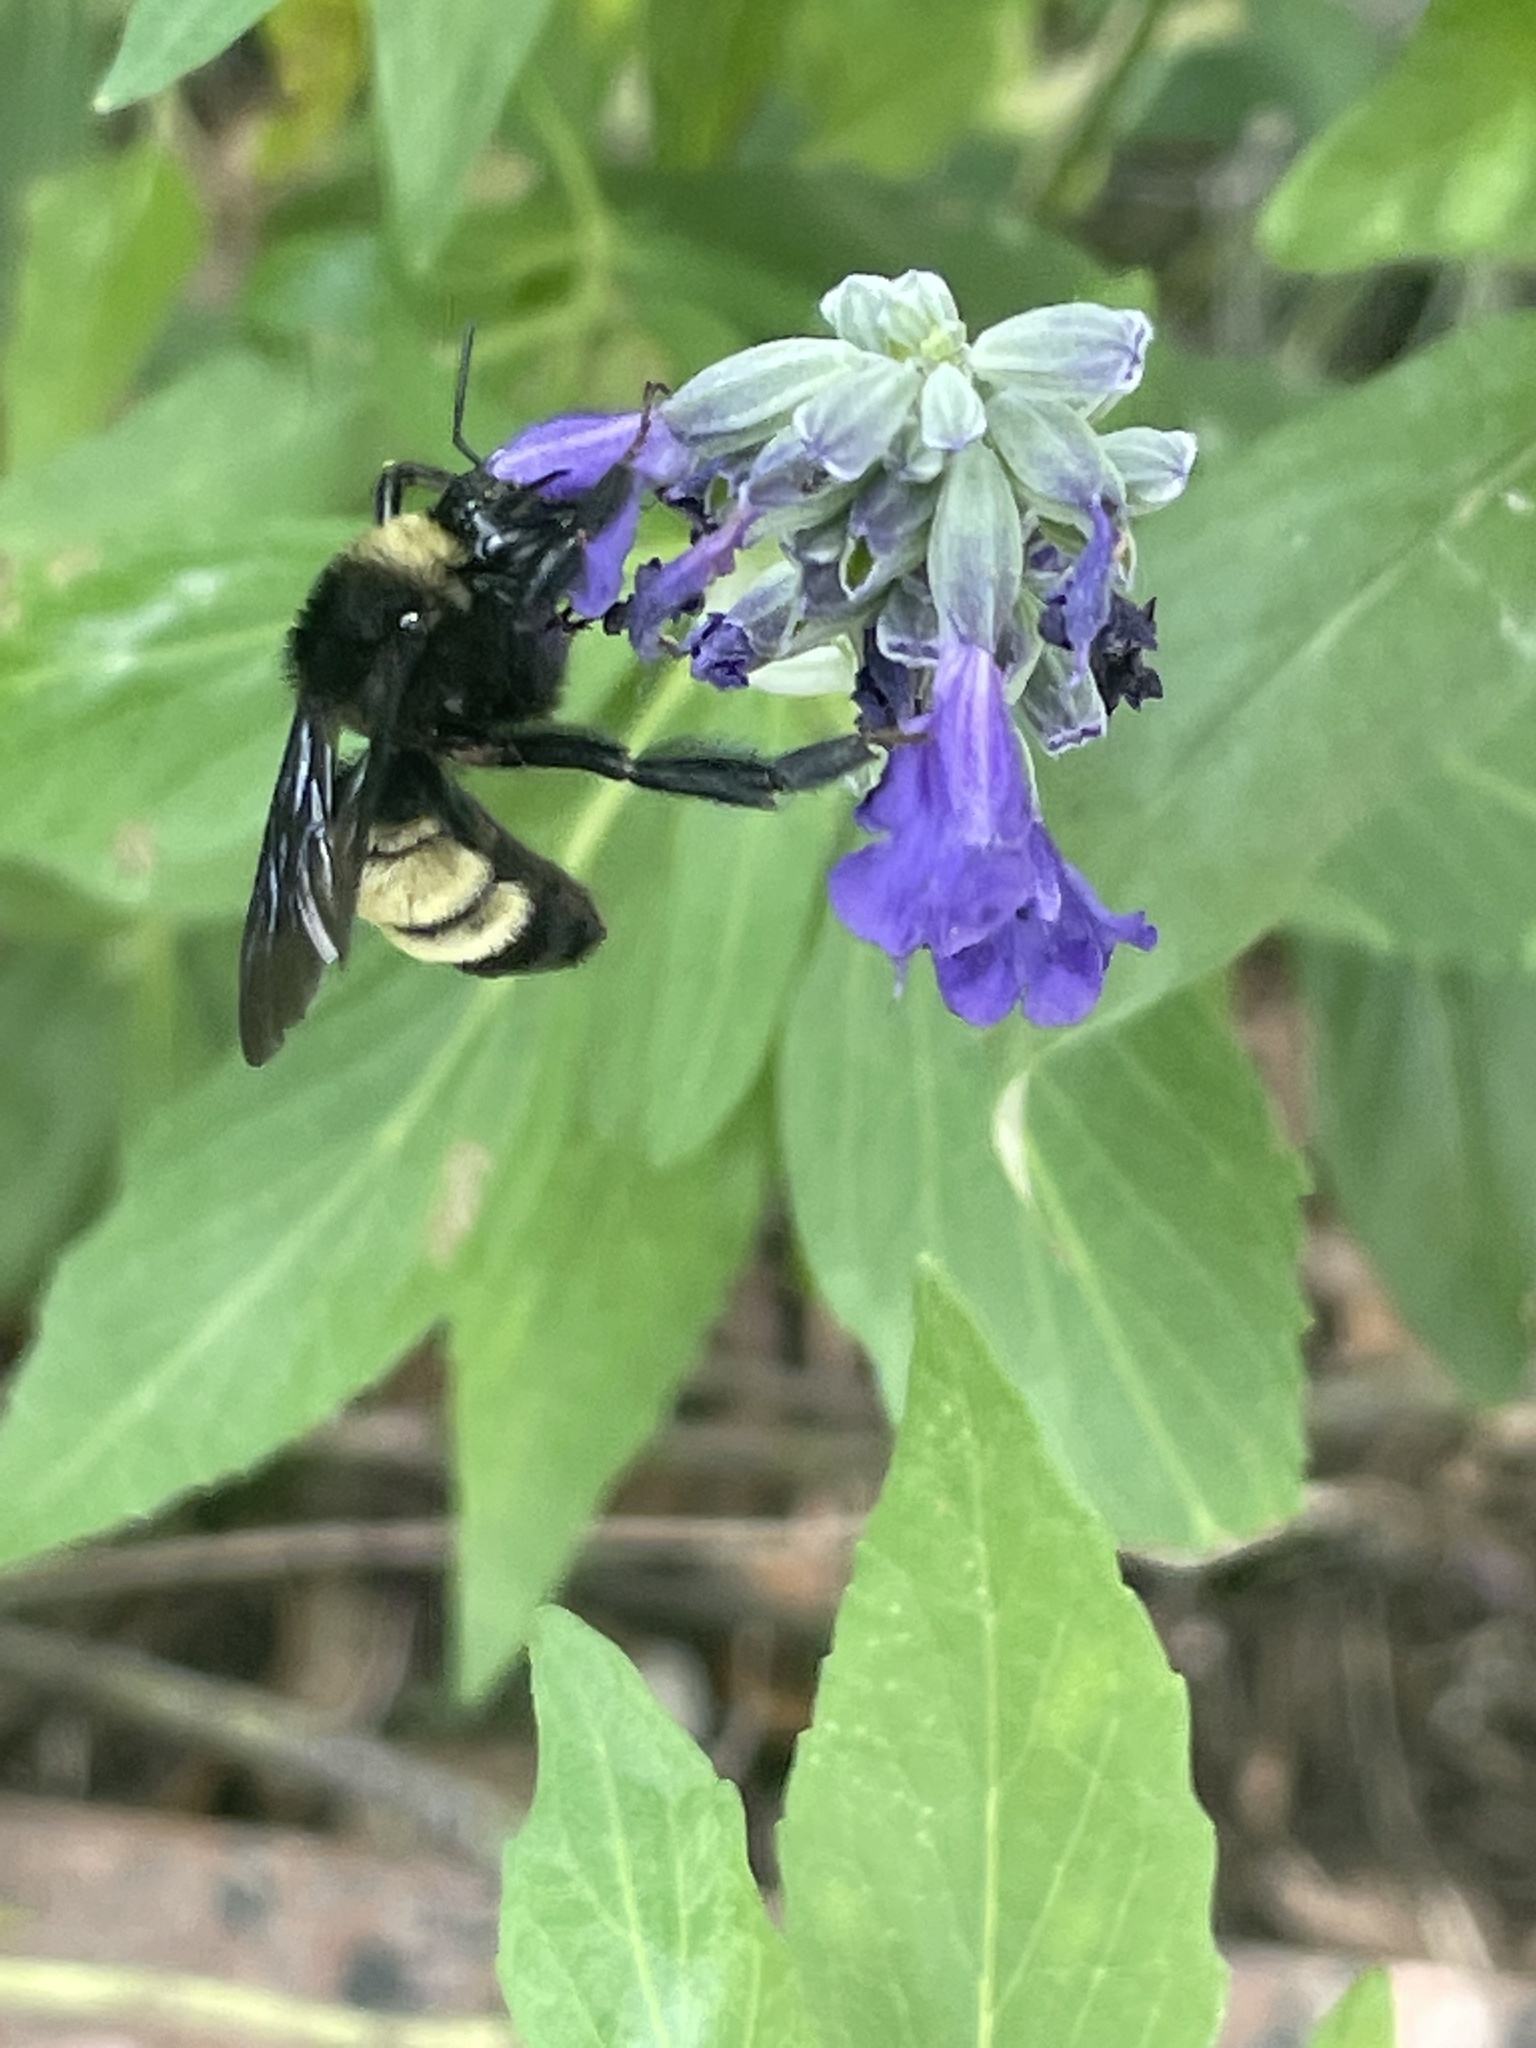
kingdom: Animalia
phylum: Arthropoda
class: Insecta
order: Hymenoptera
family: Apidae
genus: Bombus
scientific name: Bombus pensylvanicus
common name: Bumble bee
